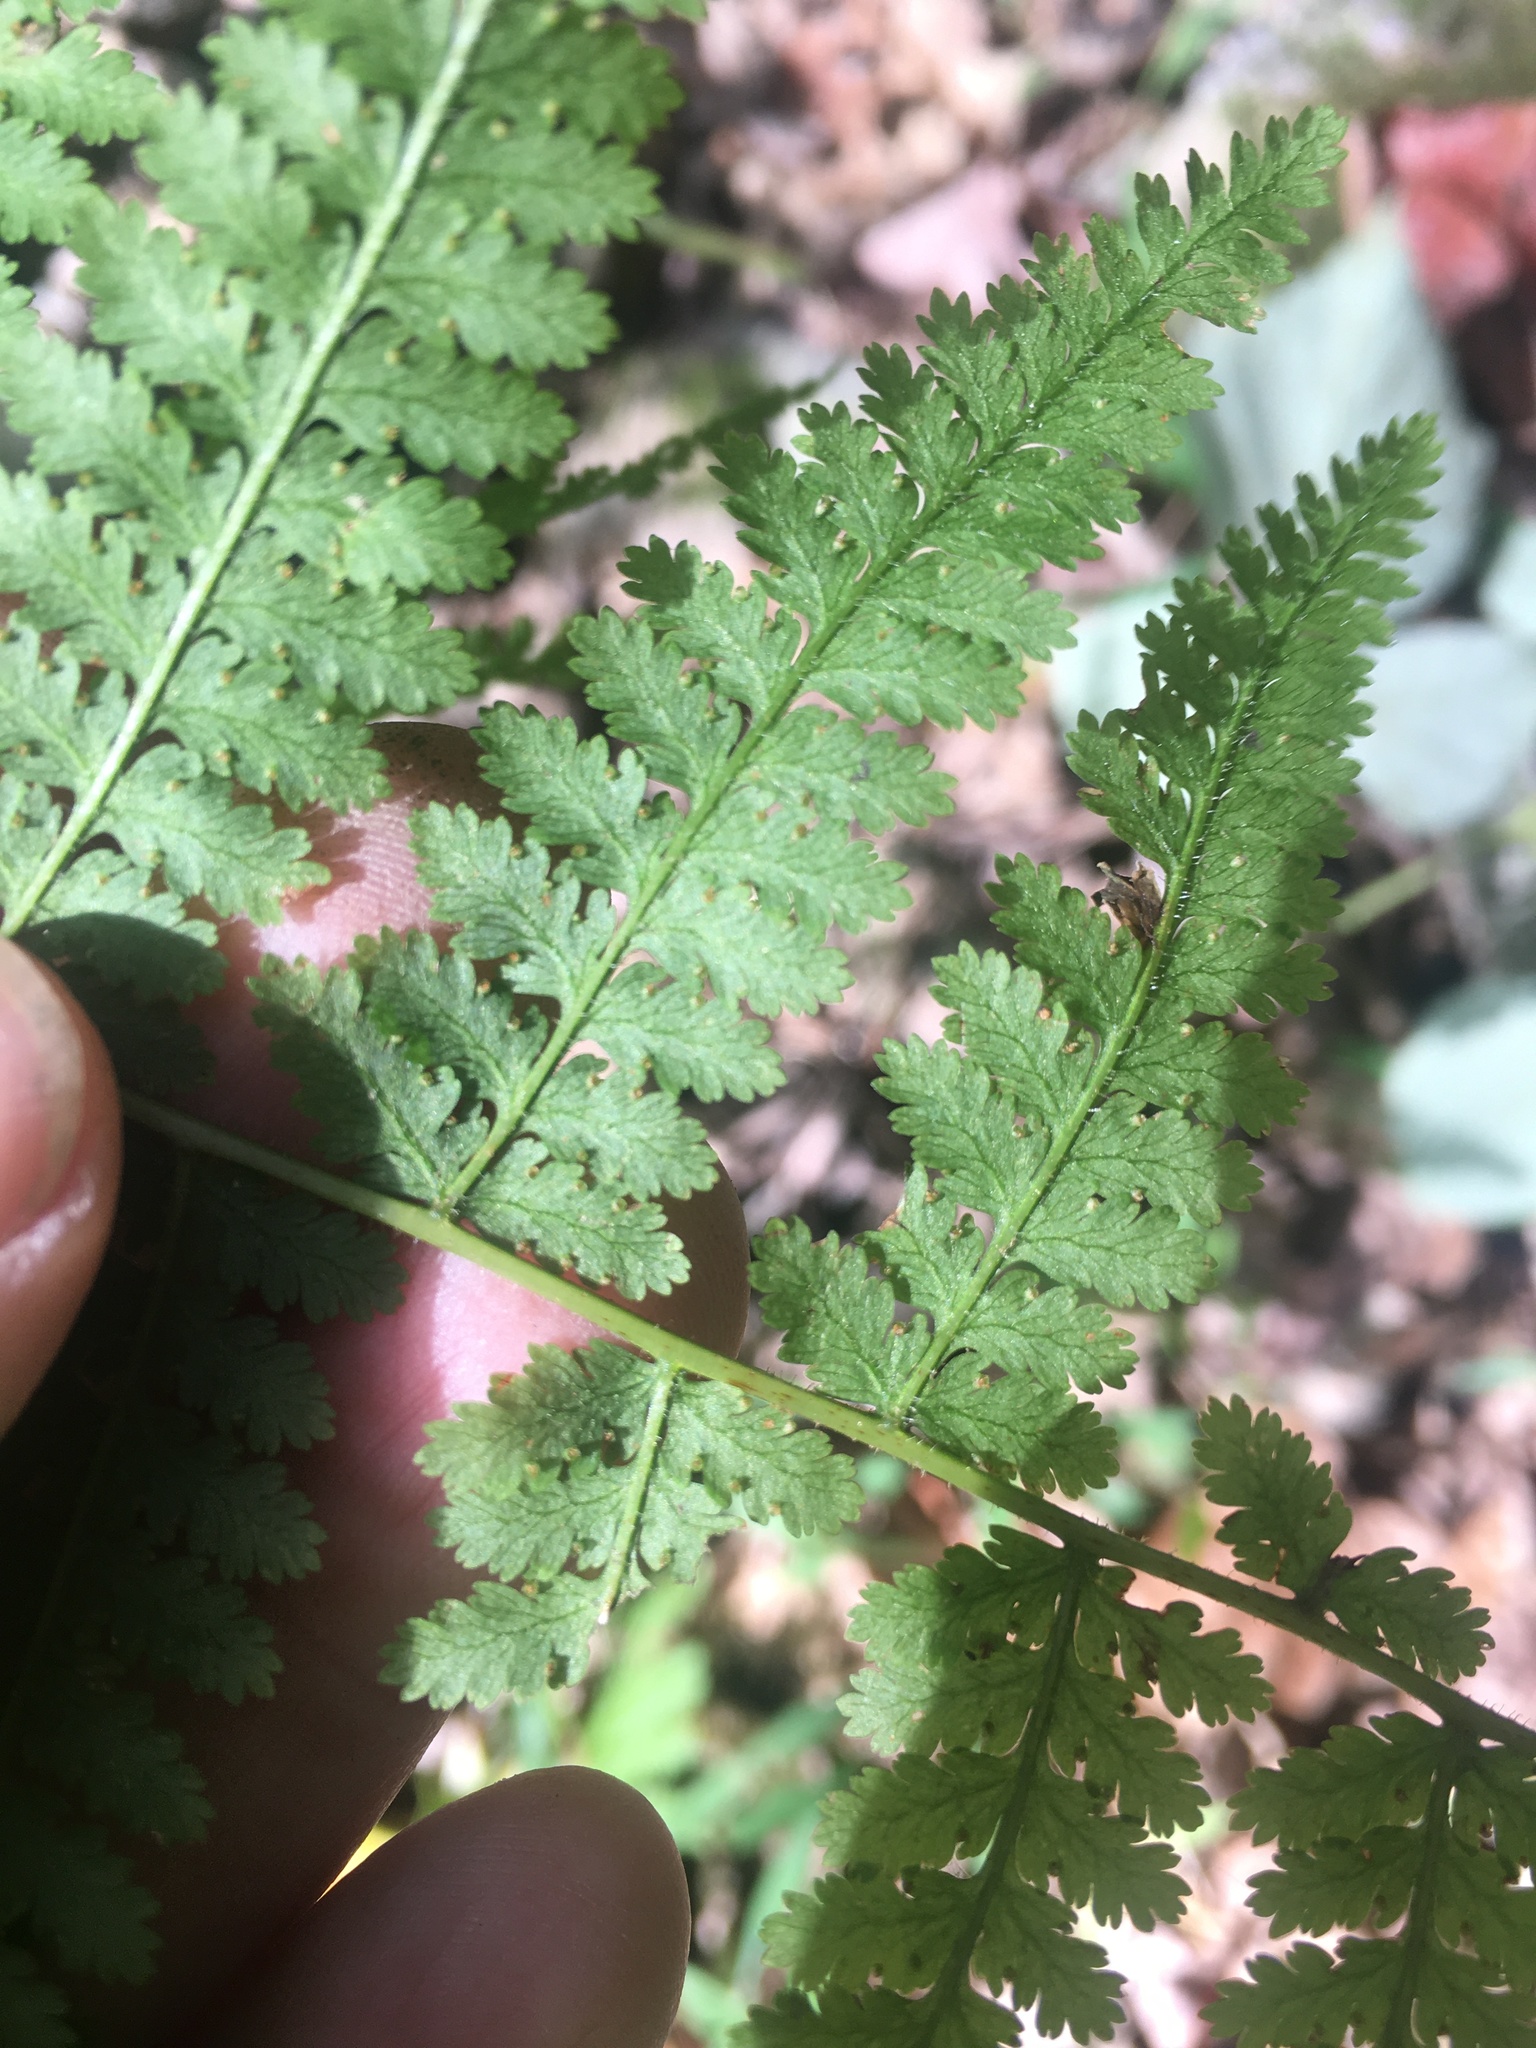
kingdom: Plantae
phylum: Tracheophyta
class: Polypodiopsida
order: Polypodiales
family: Dennstaedtiaceae
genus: Sitobolium
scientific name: Sitobolium punctilobum
